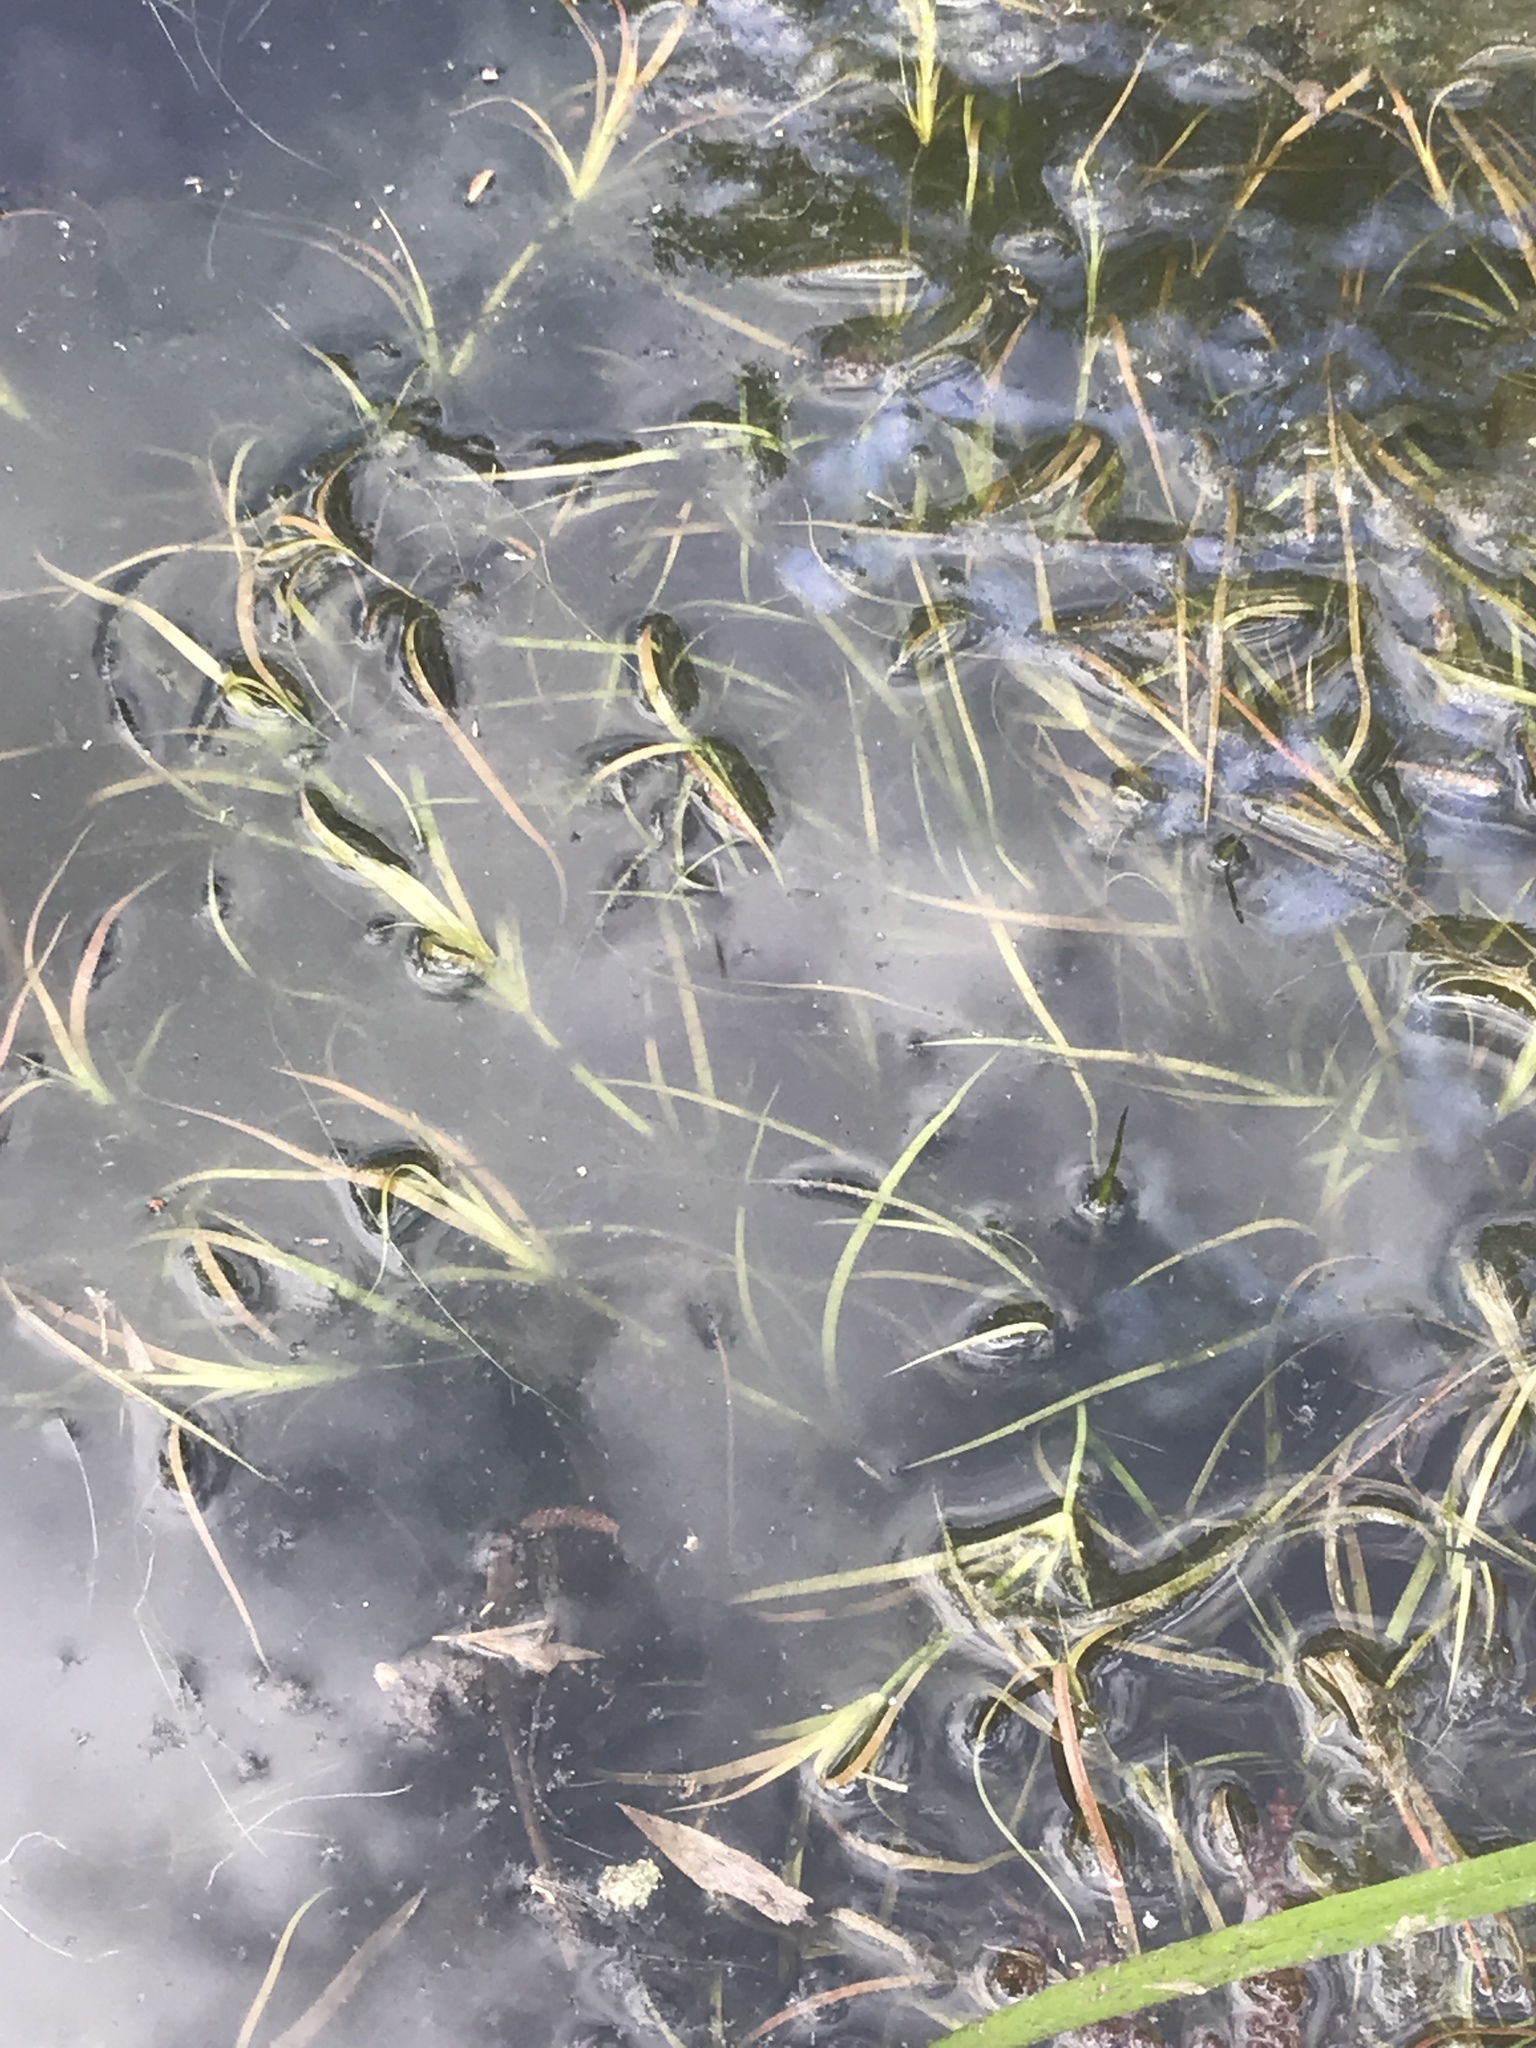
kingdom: Plantae
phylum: Tracheophyta
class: Liliopsida
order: Poales
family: Juncaceae
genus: Juncus
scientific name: Juncus repens
